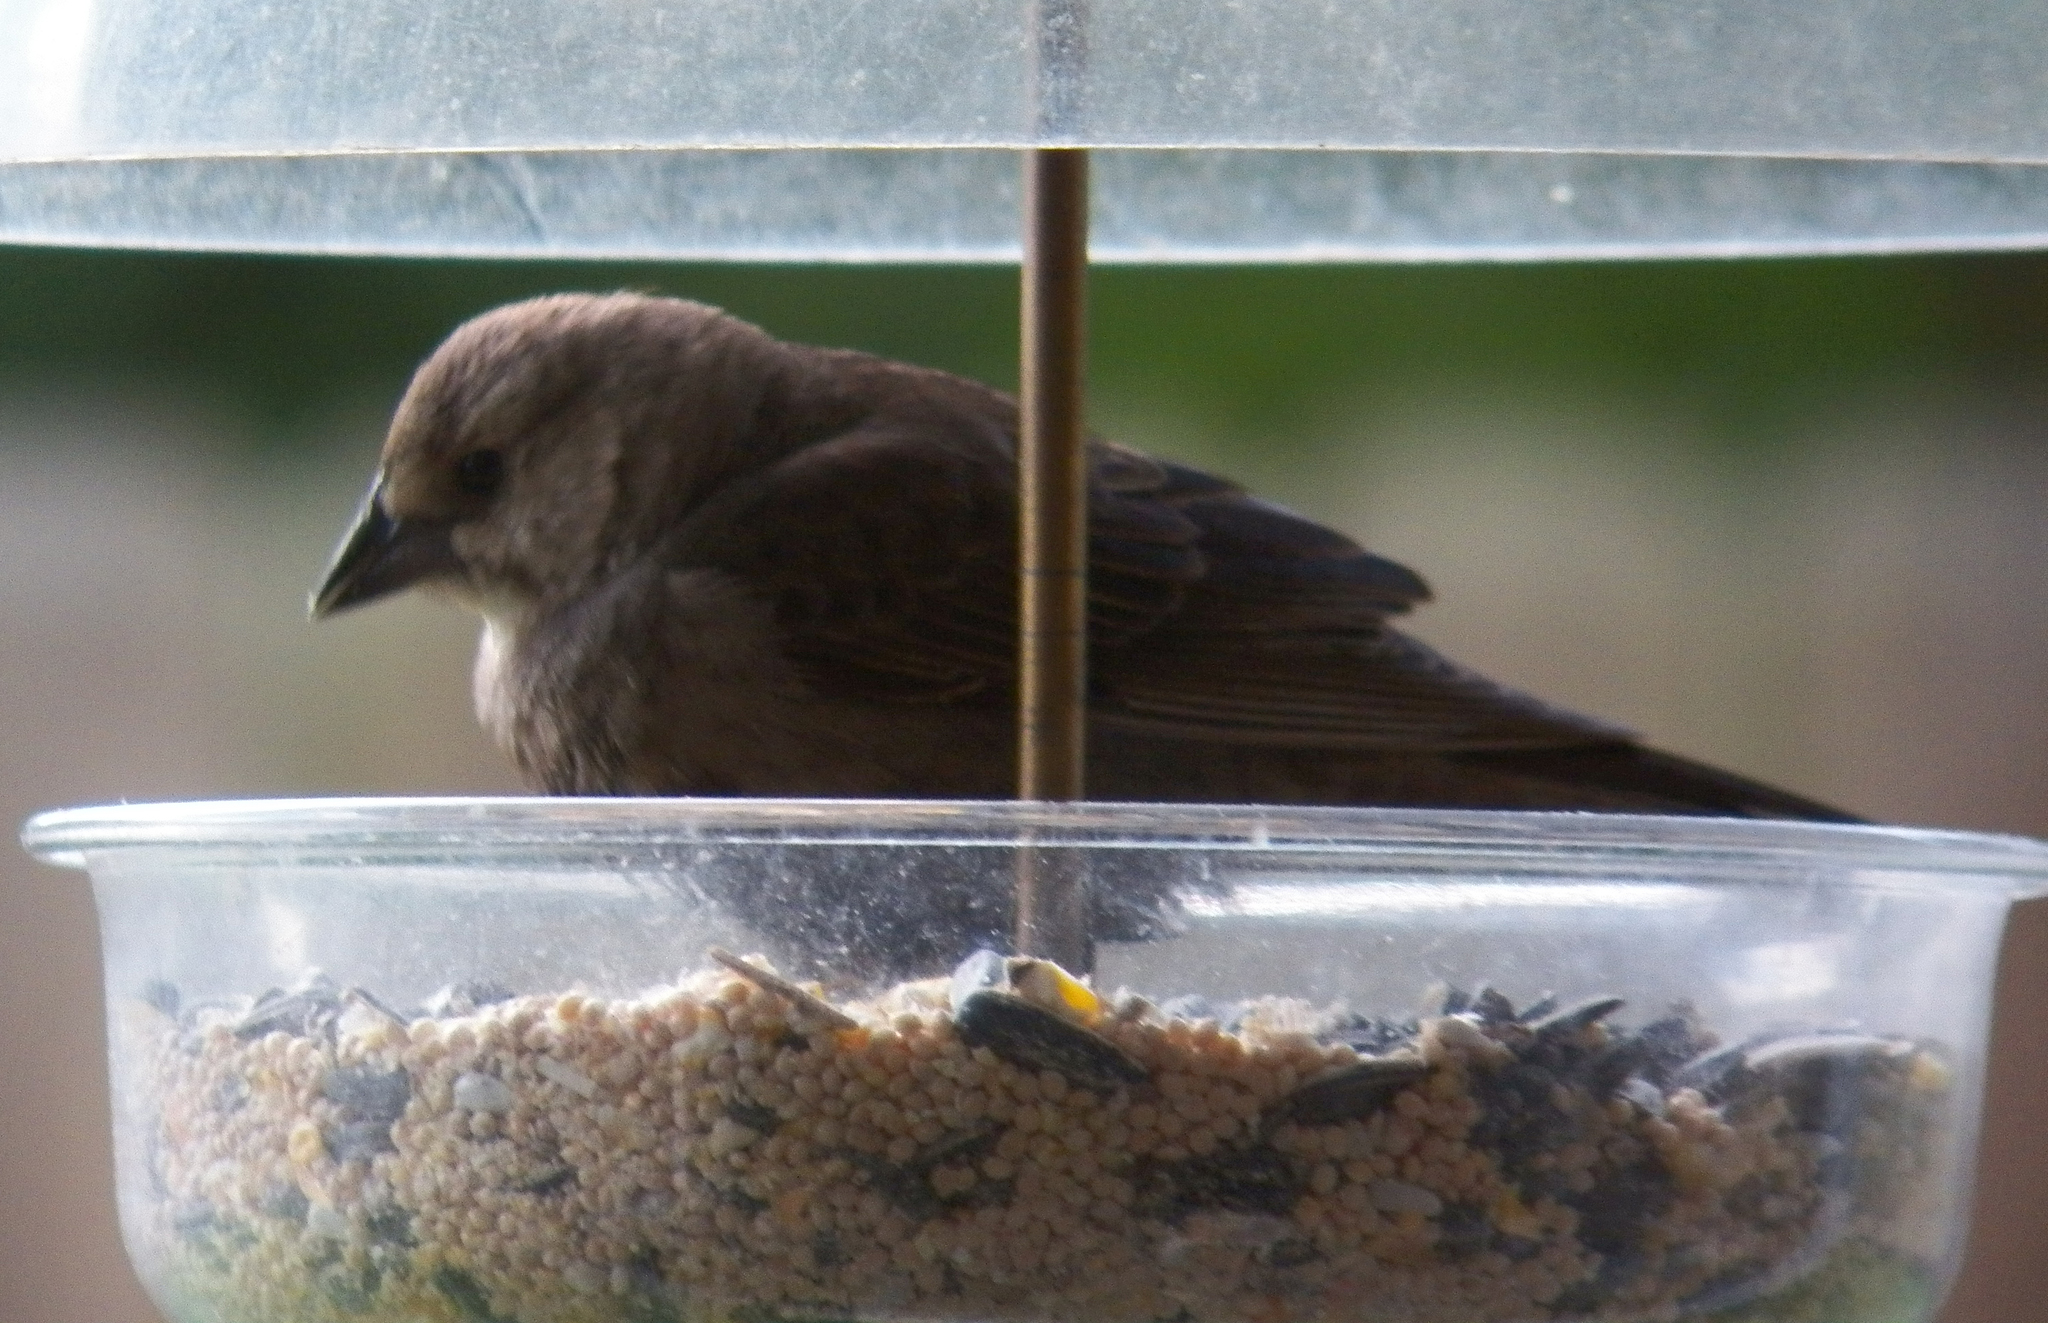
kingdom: Animalia
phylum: Chordata
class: Aves
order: Passeriformes
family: Icteridae
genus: Molothrus
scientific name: Molothrus ater
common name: Brown-headed cowbird
